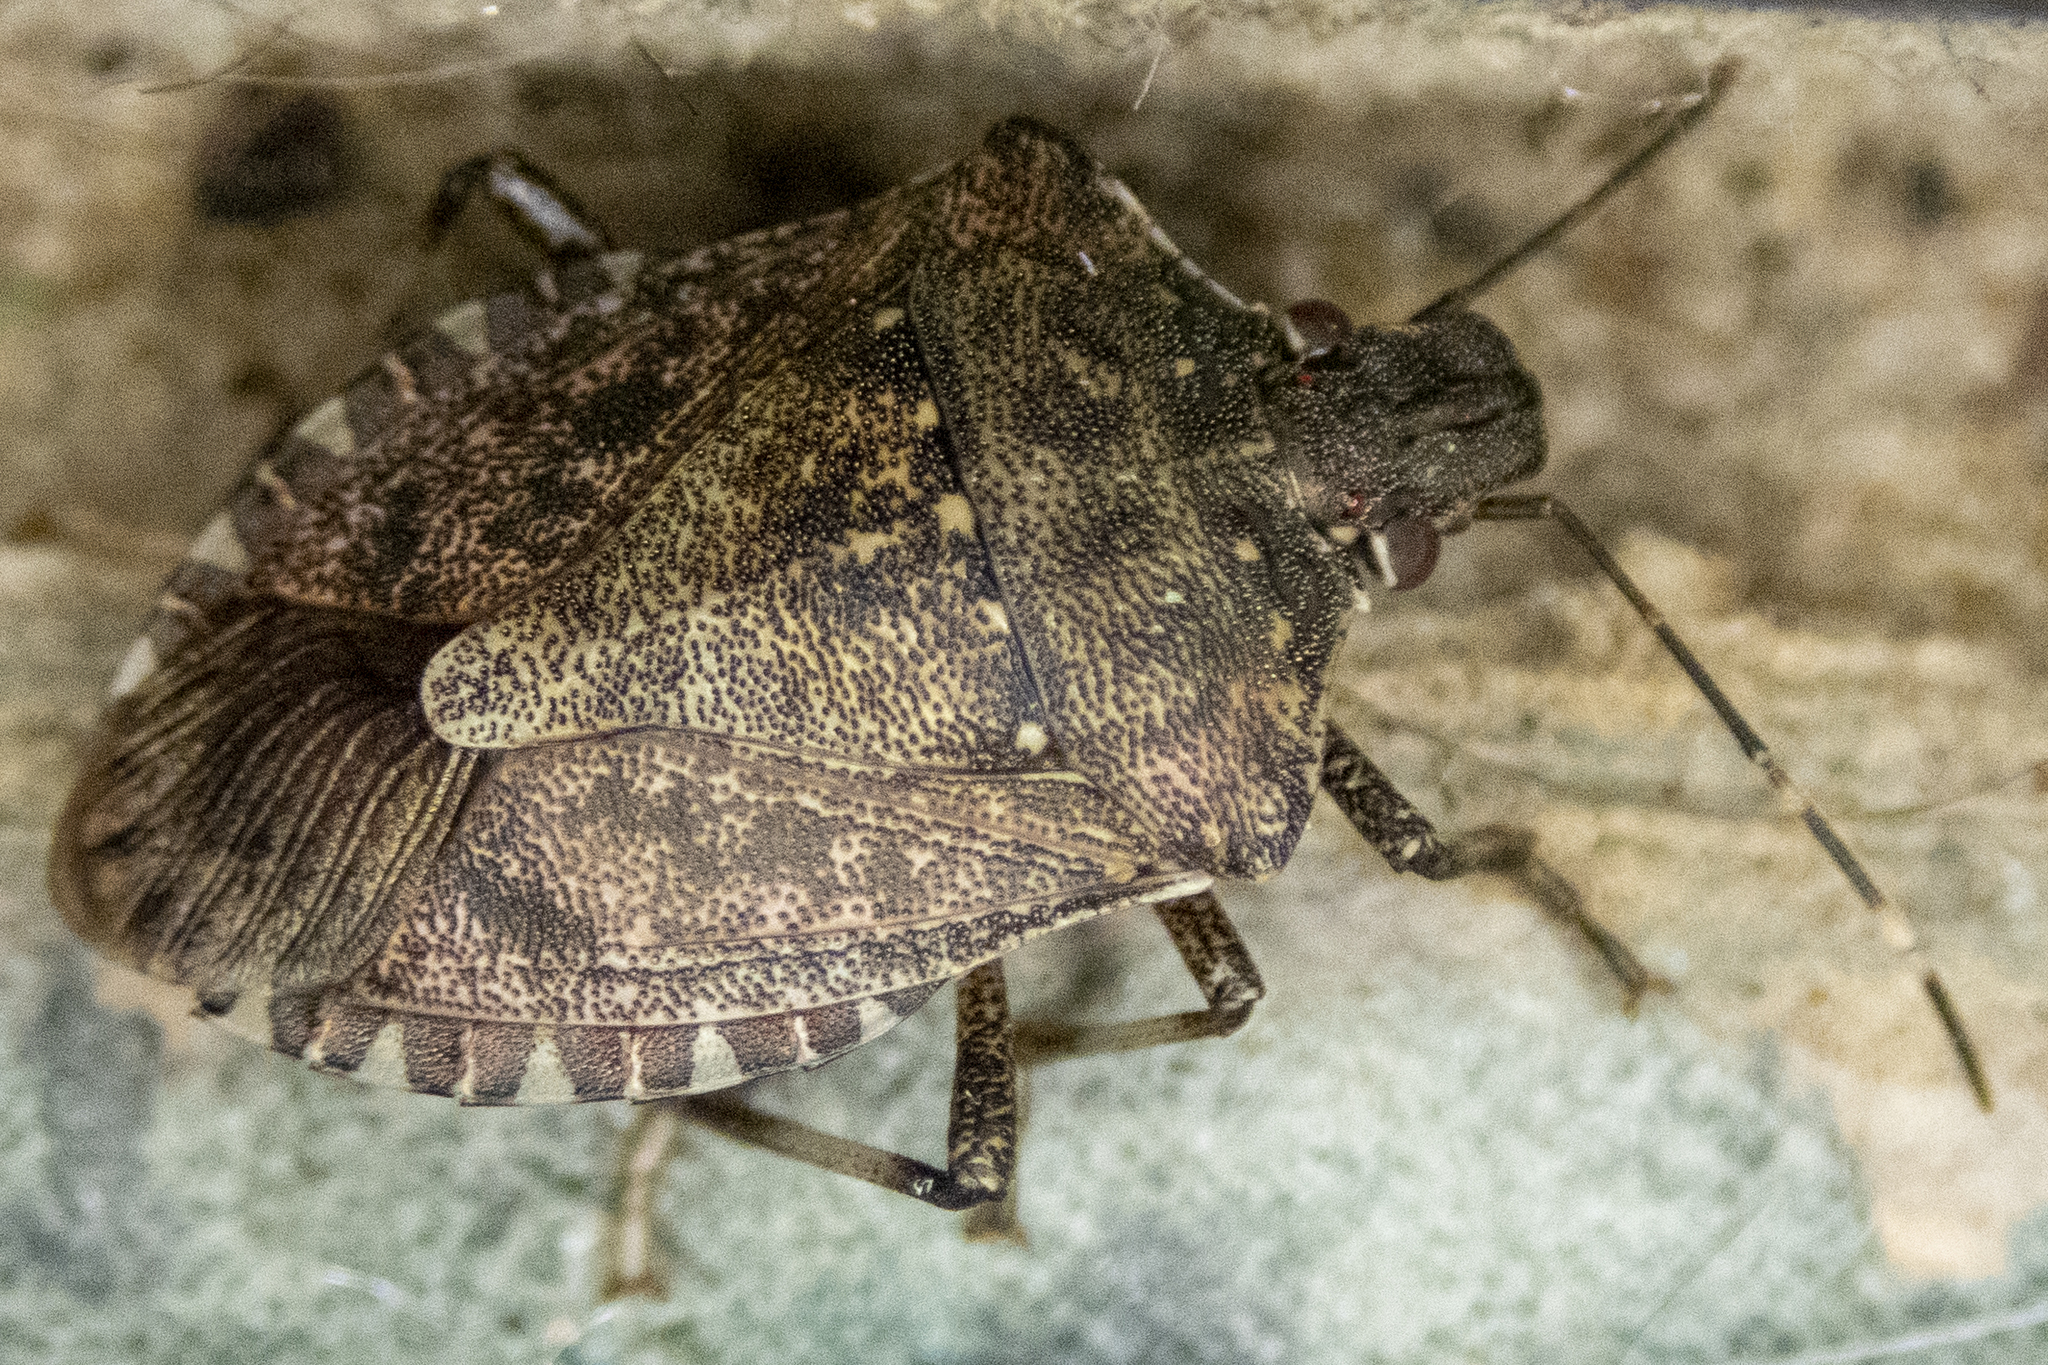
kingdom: Animalia
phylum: Arthropoda
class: Insecta
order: Hemiptera
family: Pentatomidae
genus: Halyomorpha
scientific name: Halyomorpha halys
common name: Brown marmorated stink bug
